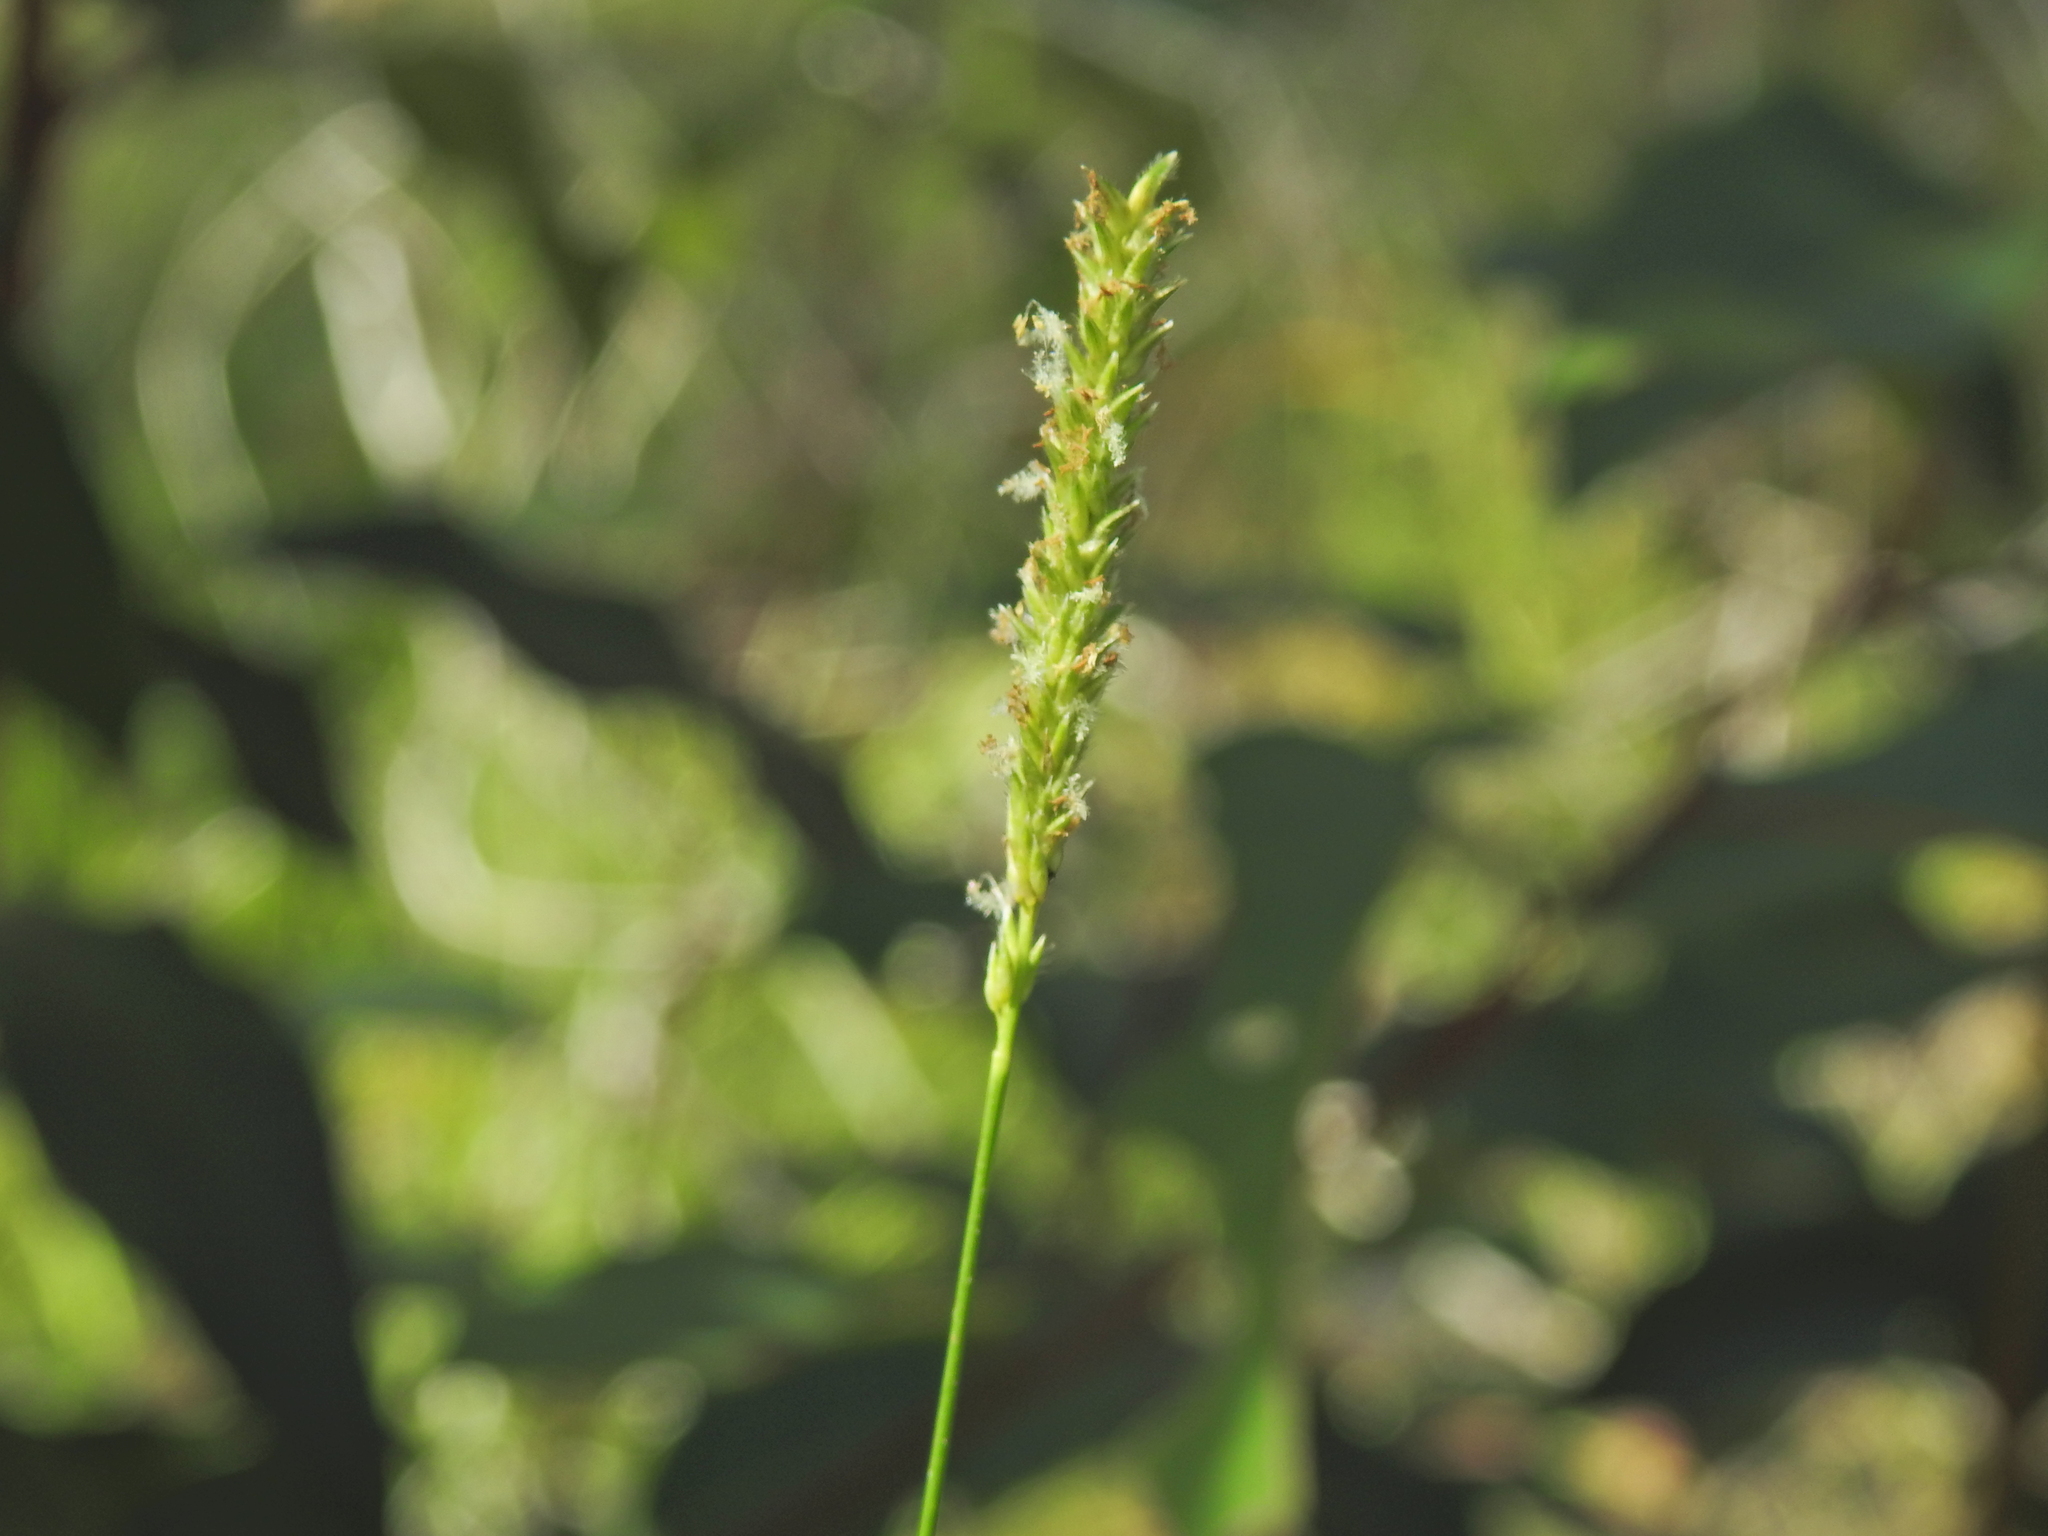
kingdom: Plantae
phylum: Tracheophyta
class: Liliopsida
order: Poales
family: Poaceae
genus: Sacciolepis
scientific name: Sacciolepis indica
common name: Glenwoodgrass
